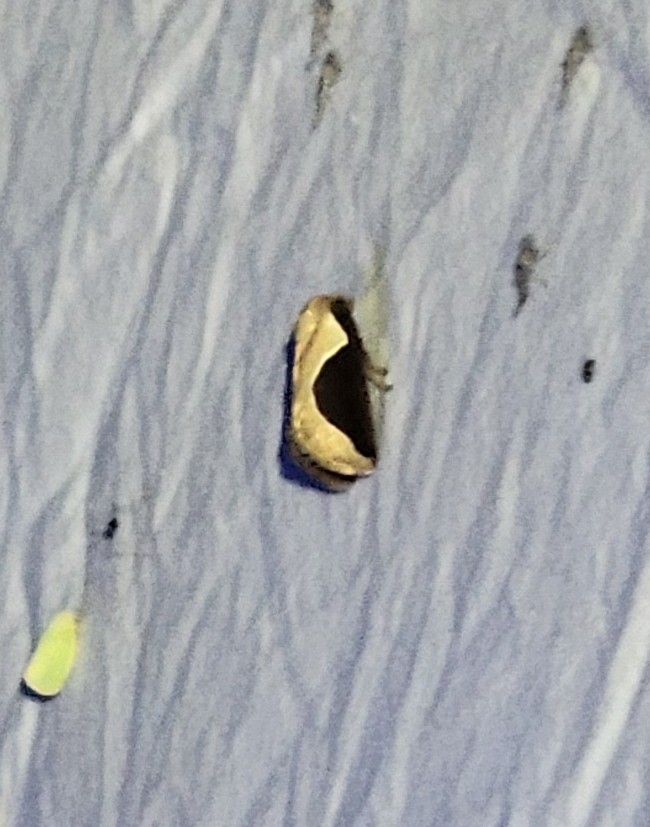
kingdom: Animalia
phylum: Arthropoda
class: Insecta
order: Lepidoptera
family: Limacodidae
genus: Prolimacodes
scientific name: Prolimacodes badia
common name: Skiff moth
